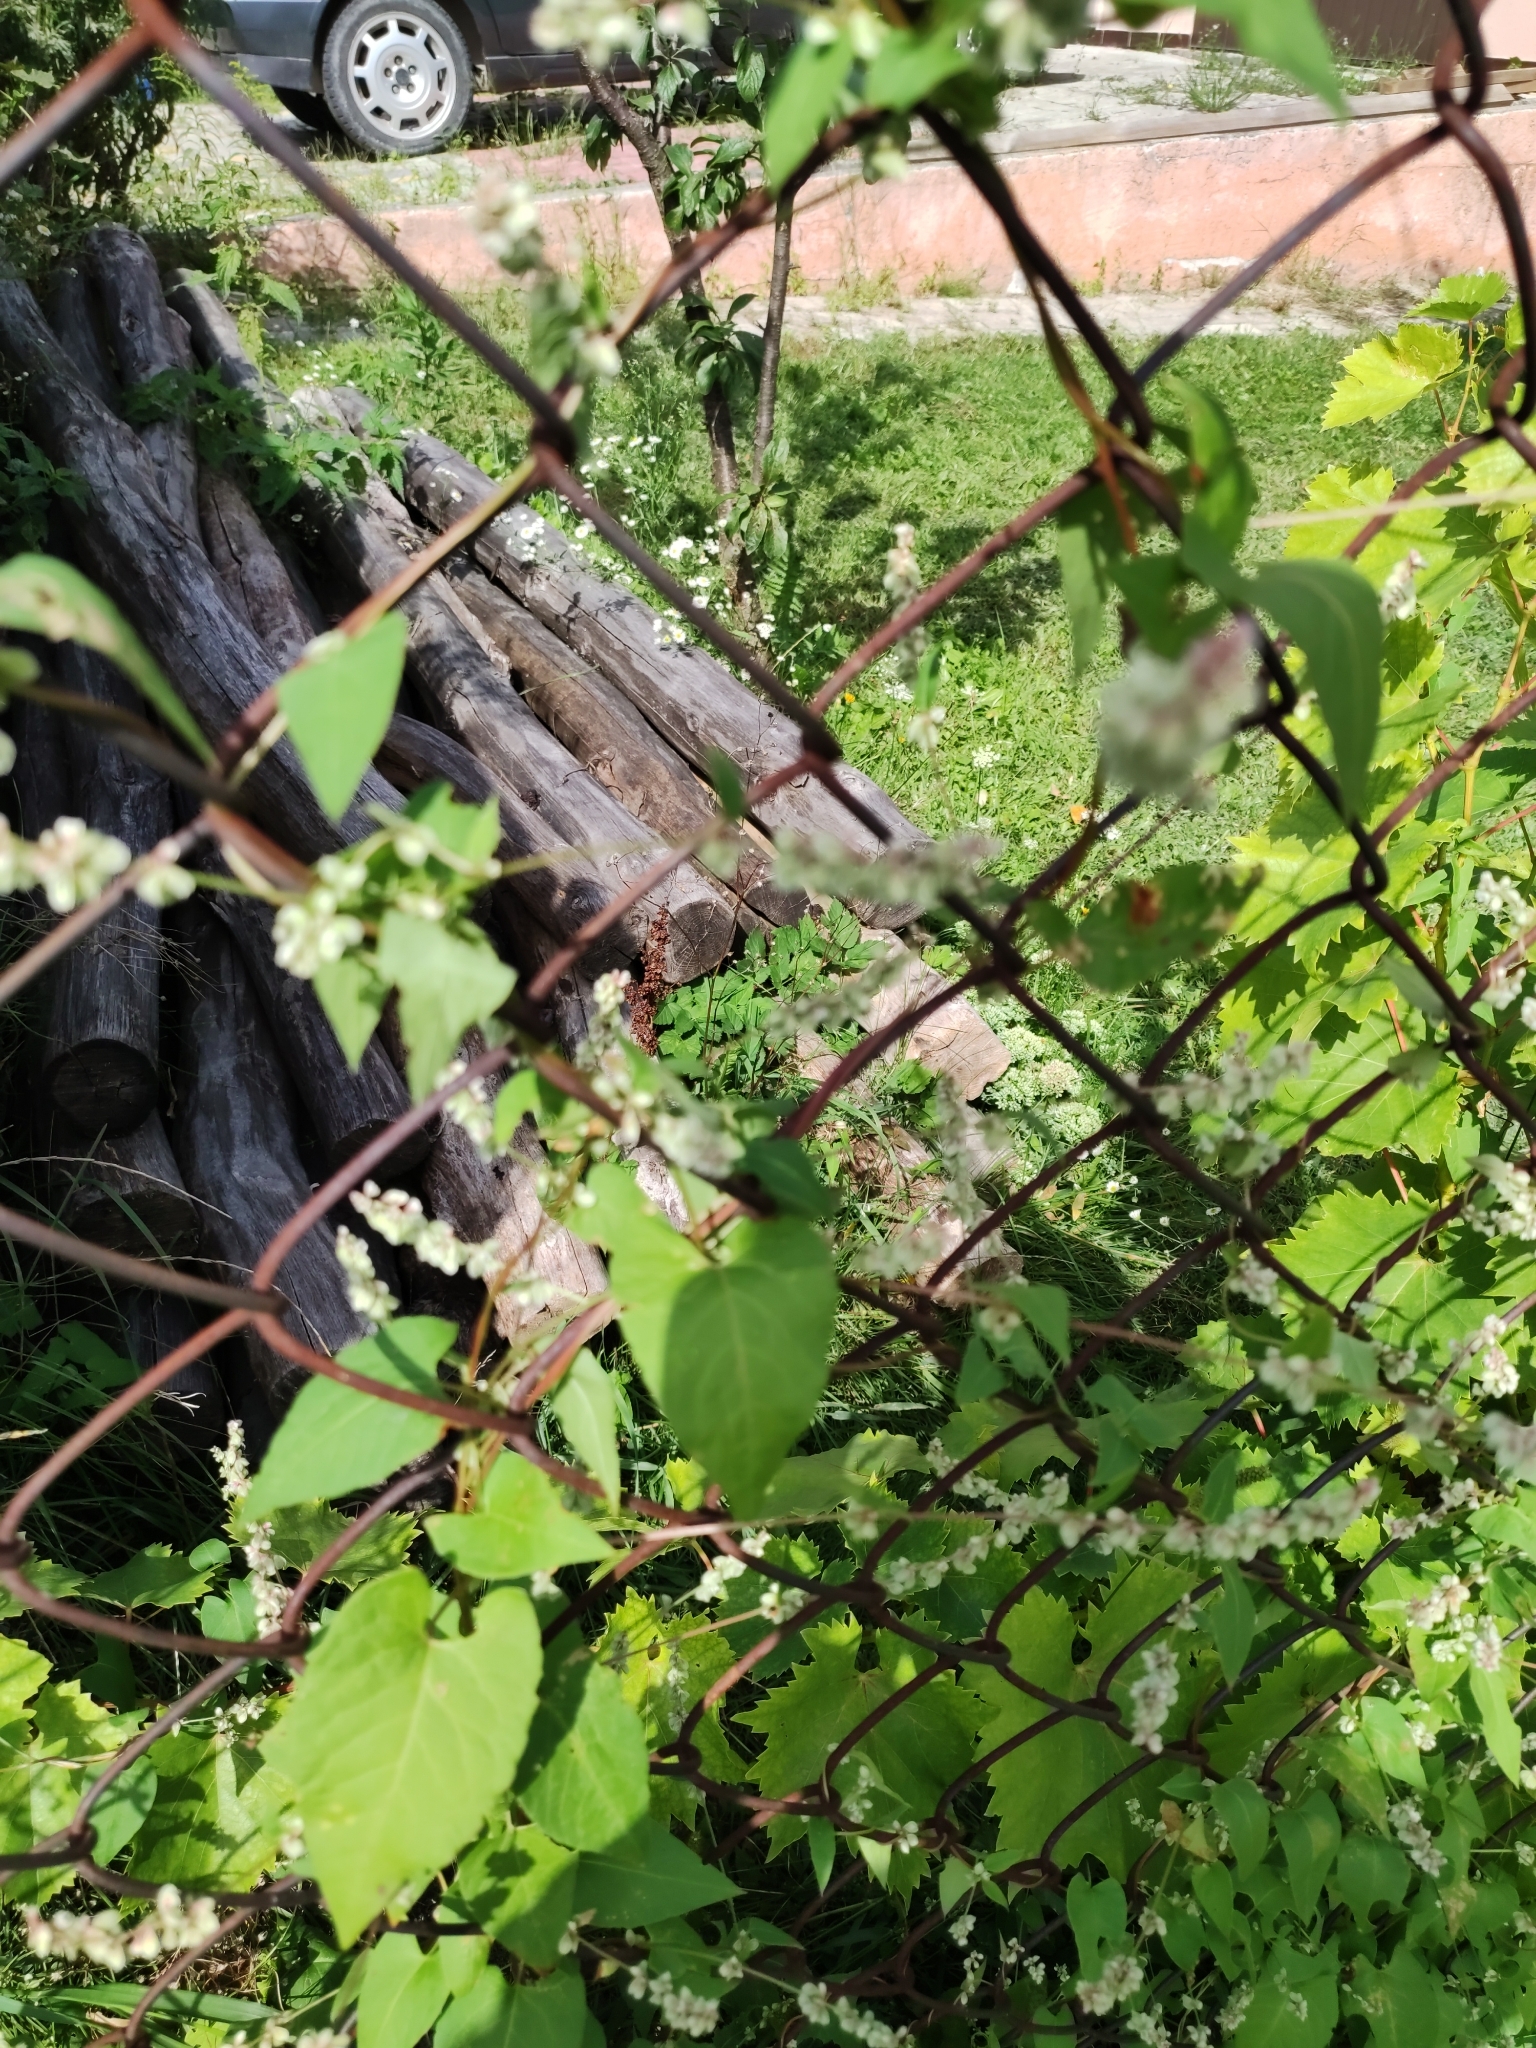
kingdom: Plantae
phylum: Tracheophyta
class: Magnoliopsida
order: Caryophyllales
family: Polygonaceae
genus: Fallopia
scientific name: Fallopia dumetorum
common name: Copse-bindweed
